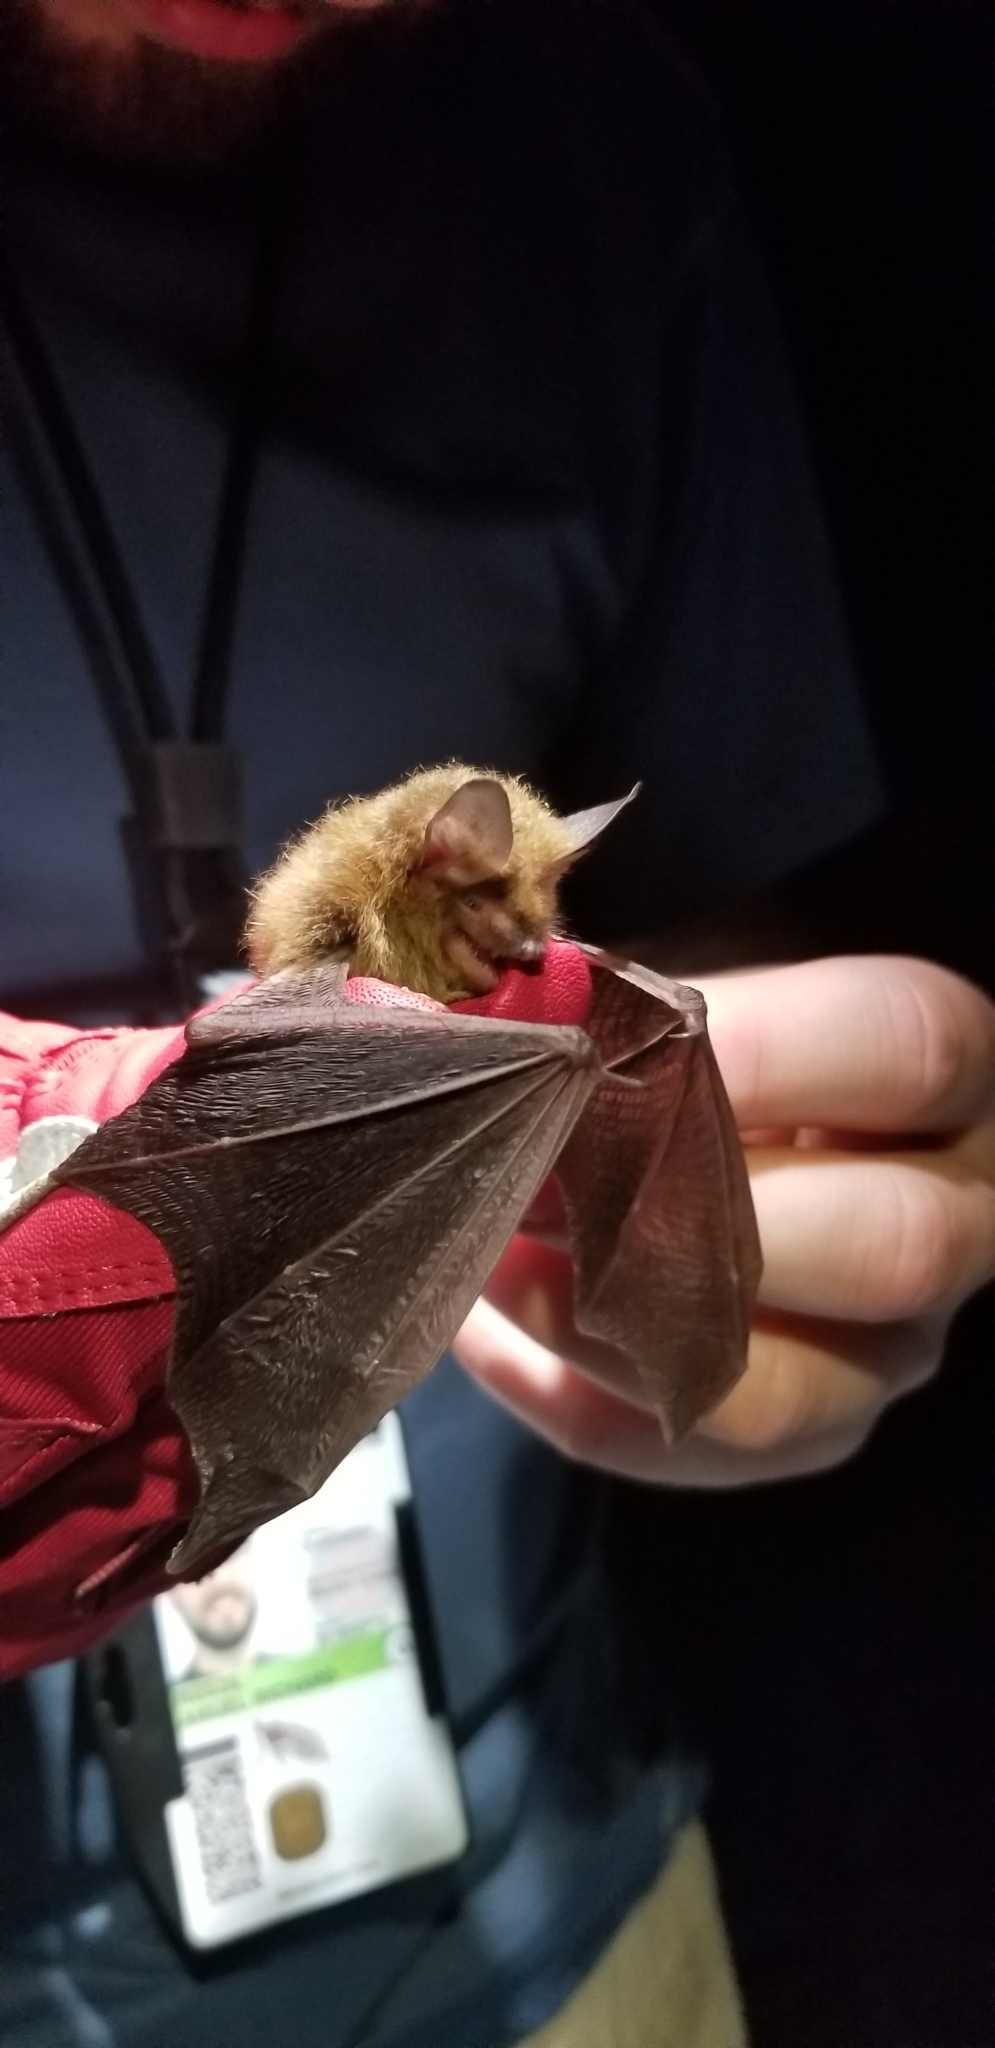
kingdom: Animalia
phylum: Chordata
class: Mammalia
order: Chiroptera
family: Vespertilionidae
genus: Myotis
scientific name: Myotis septentrionalis
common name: Northern myotis
